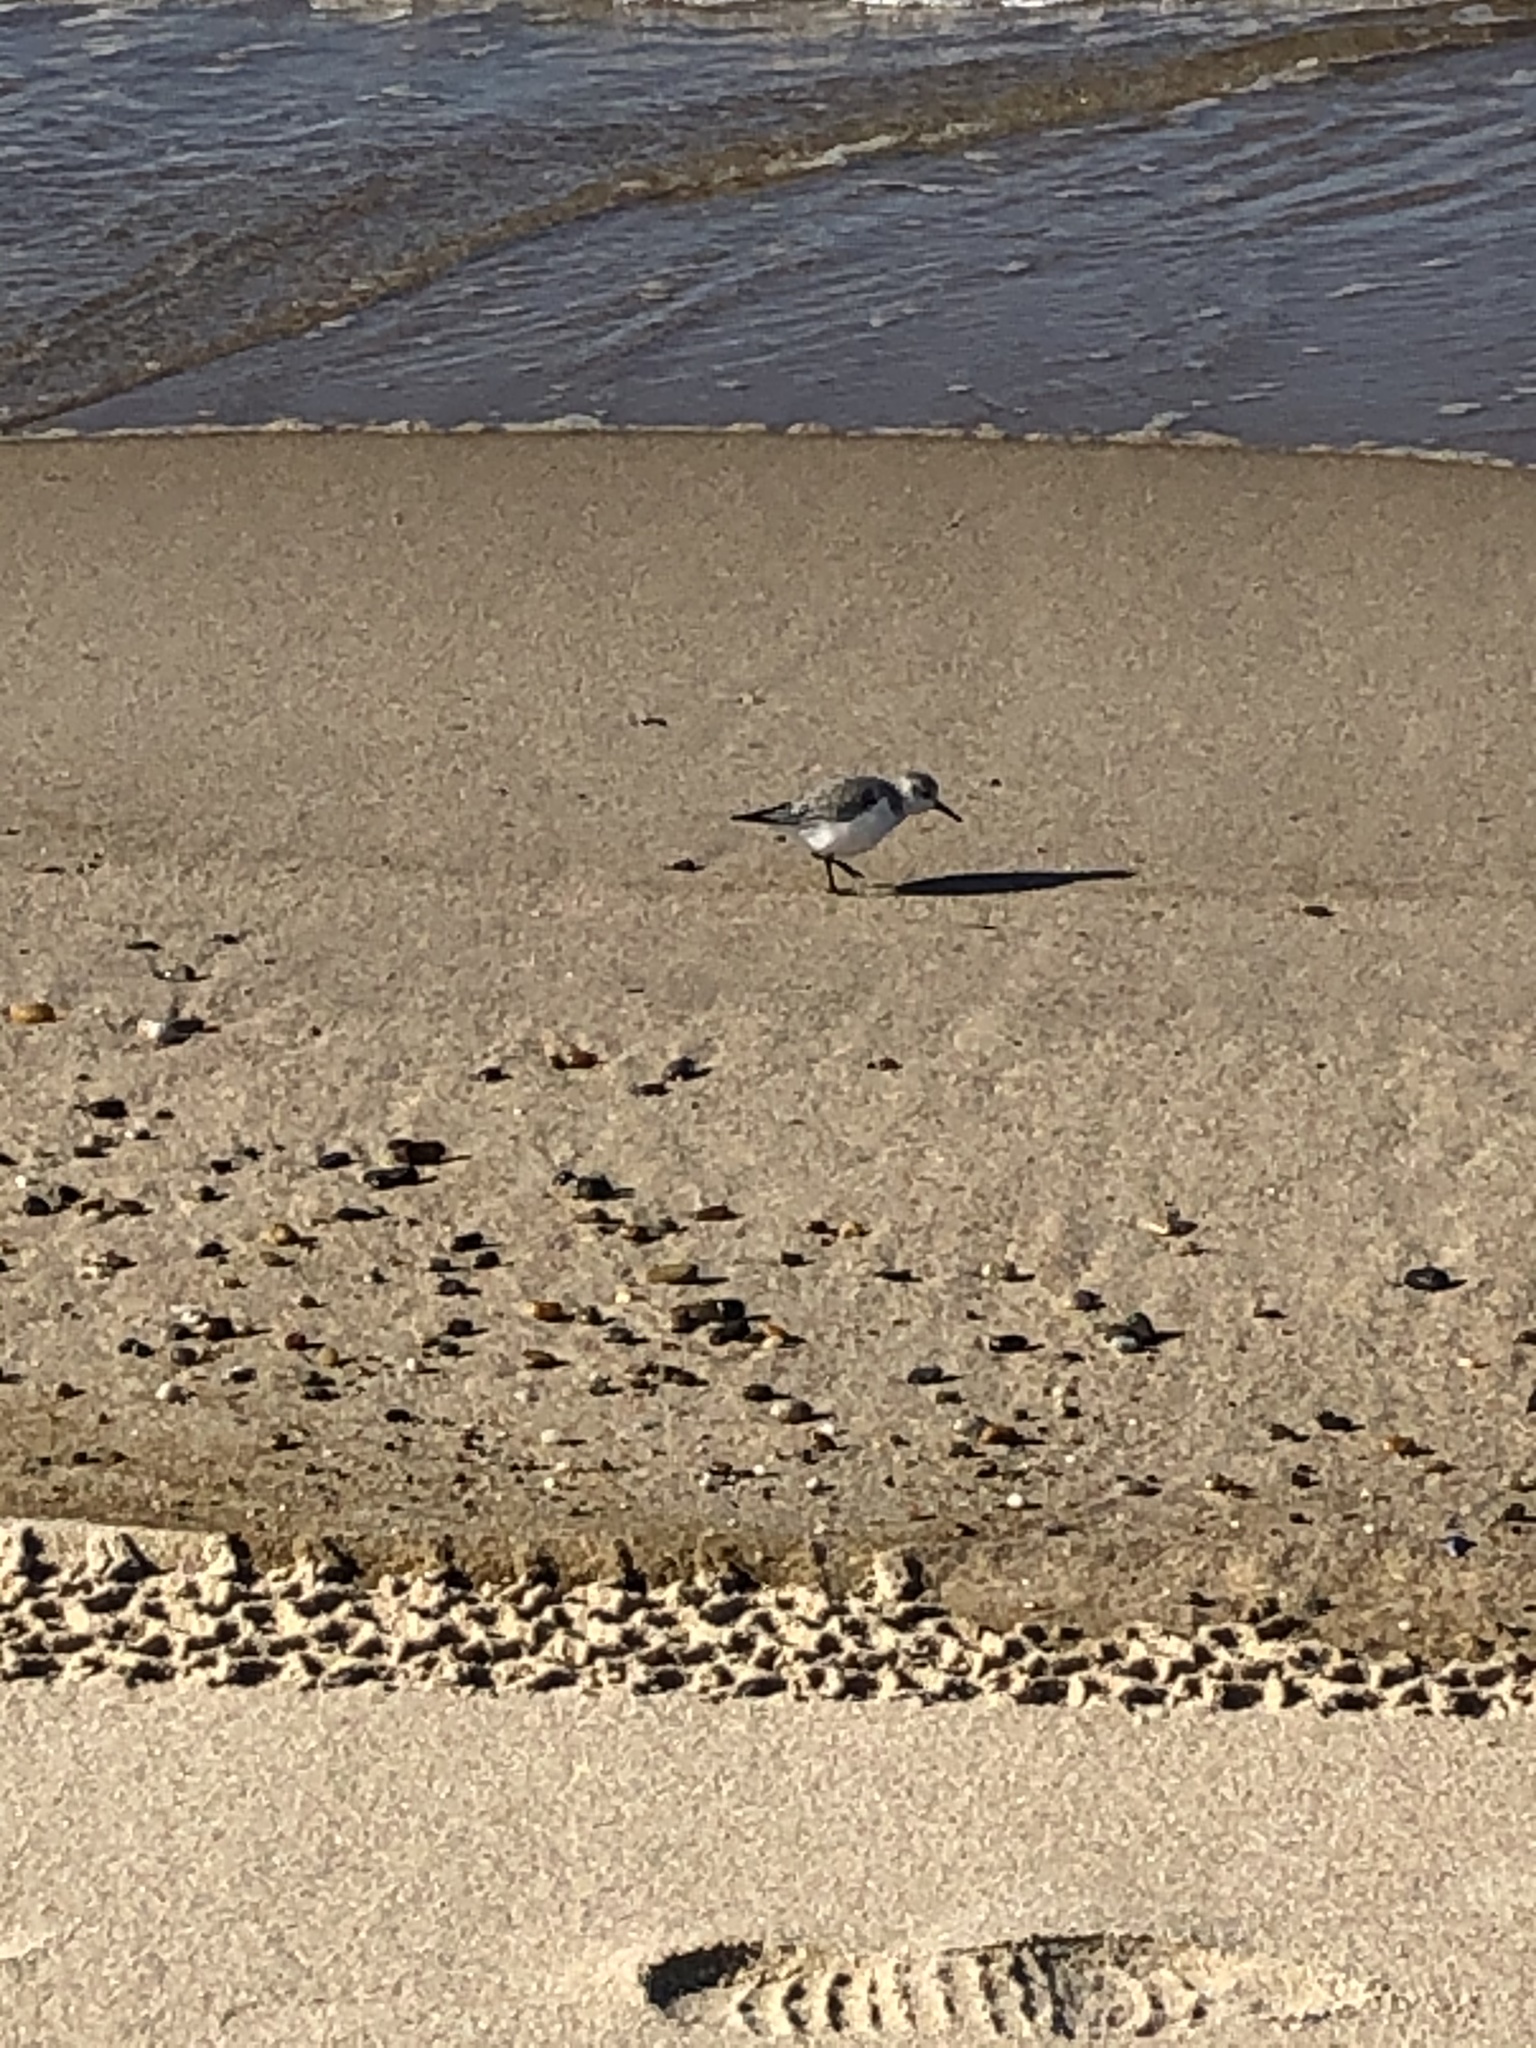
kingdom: Animalia
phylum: Chordata
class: Aves
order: Charadriiformes
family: Scolopacidae
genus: Calidris
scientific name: Calidris alba
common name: Sanderling
